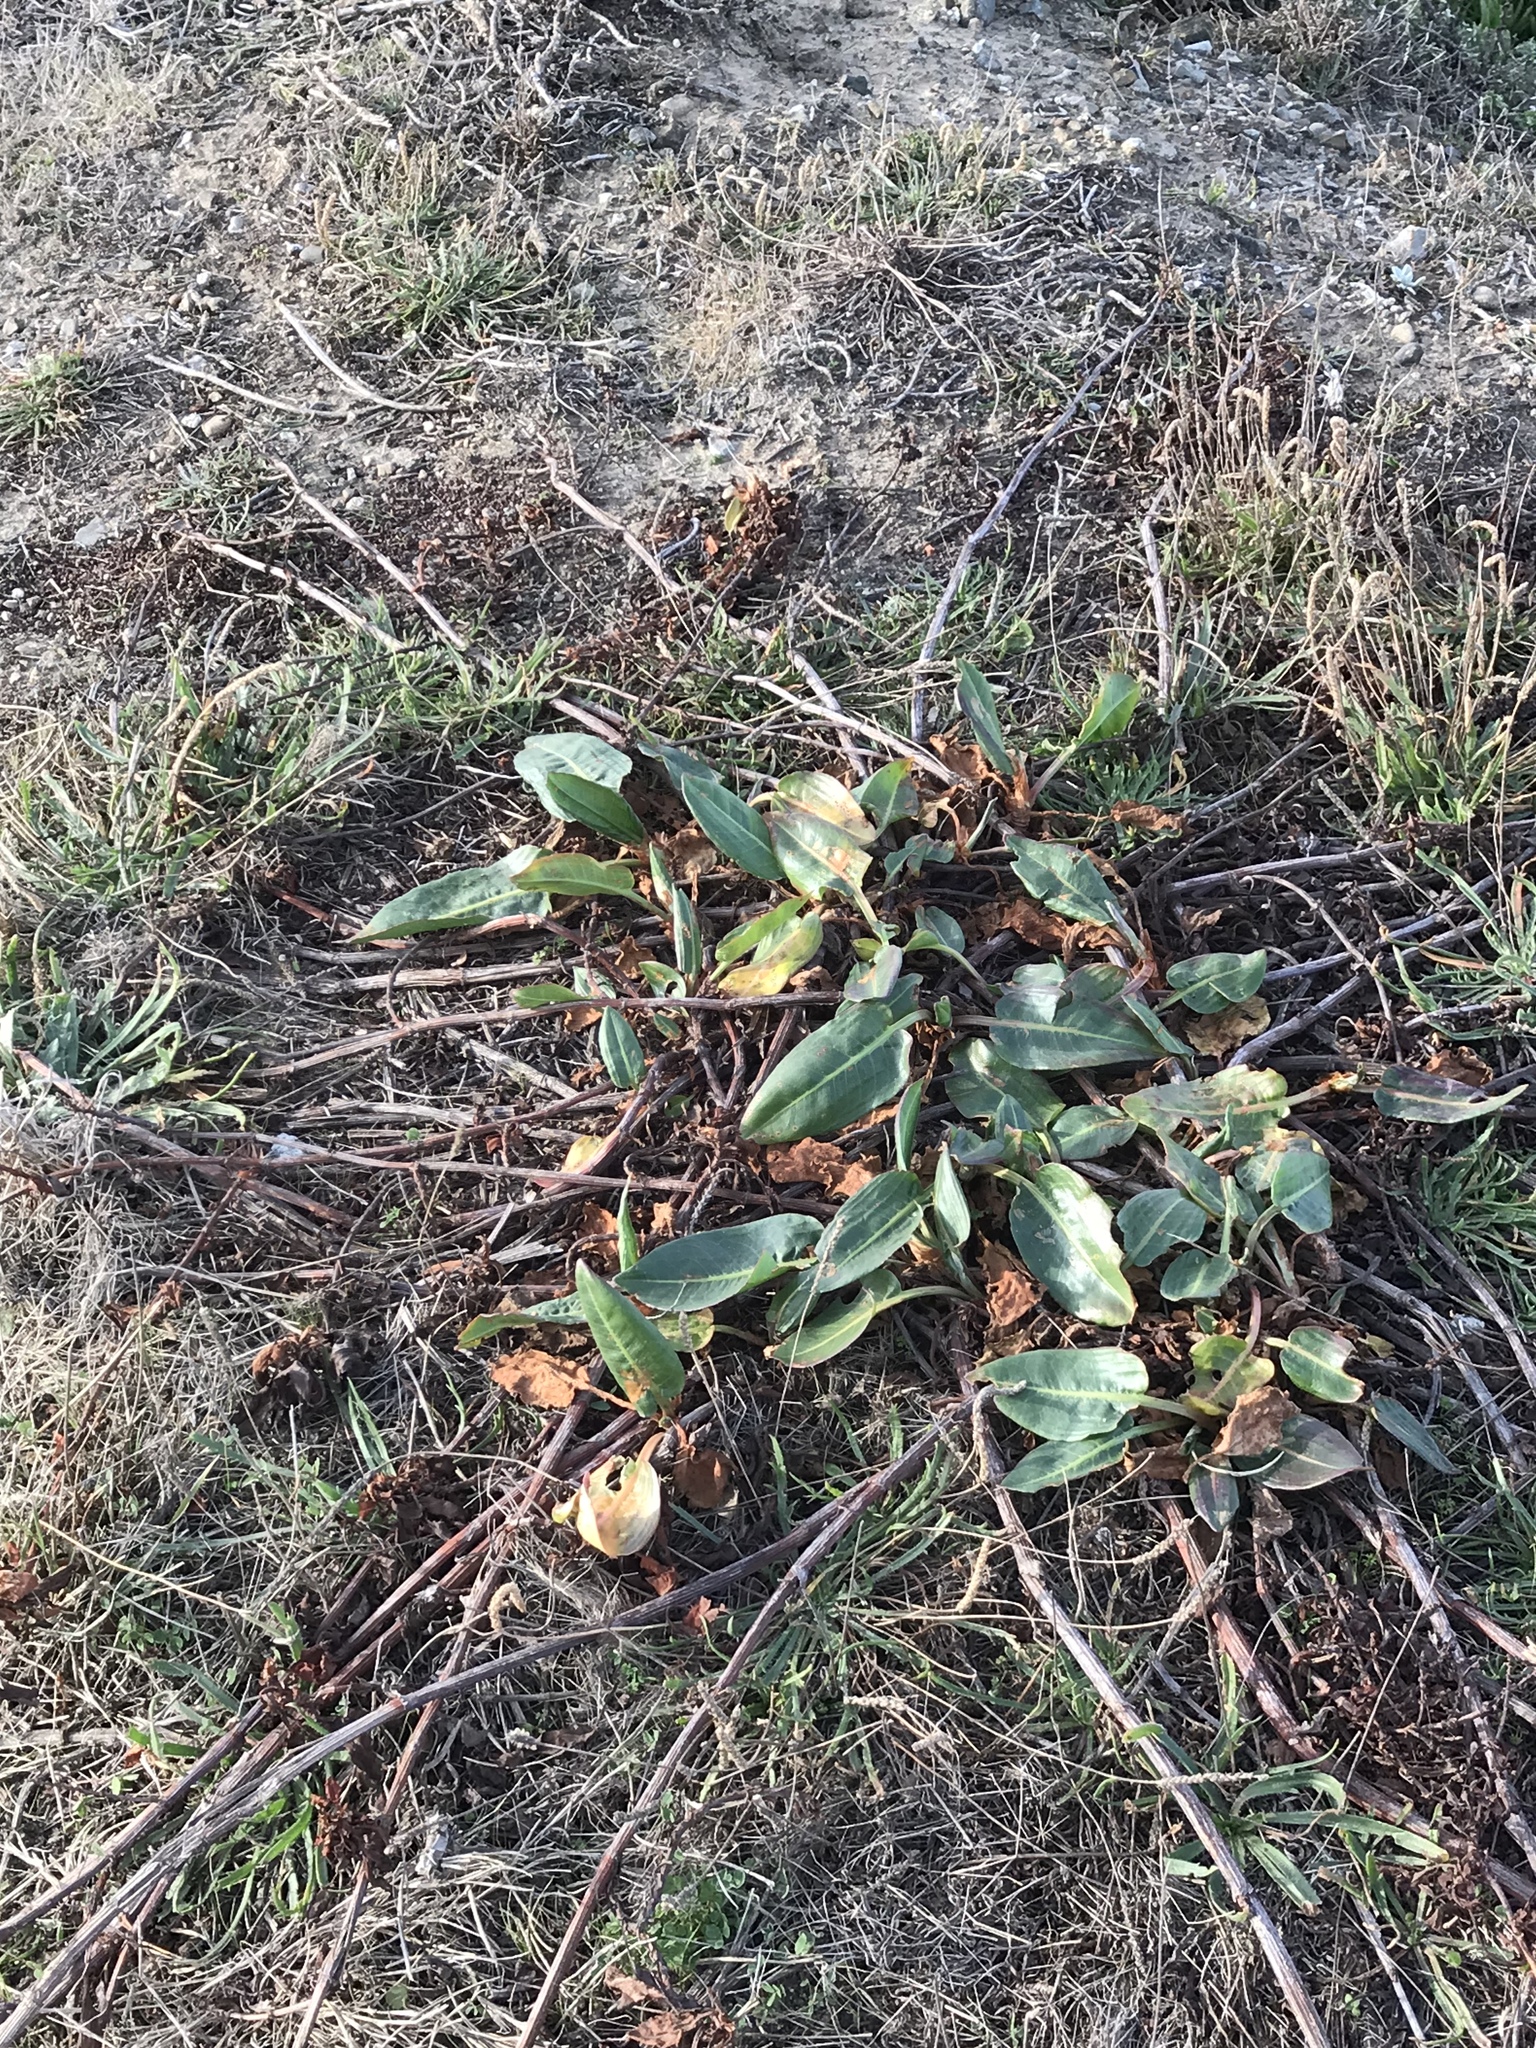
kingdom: Plantae
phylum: Tracheophyta
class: Magnoliopsida
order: Caryophyllales
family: Polygonaceae
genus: Rumex
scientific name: Rumex crispus
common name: Curled dock
